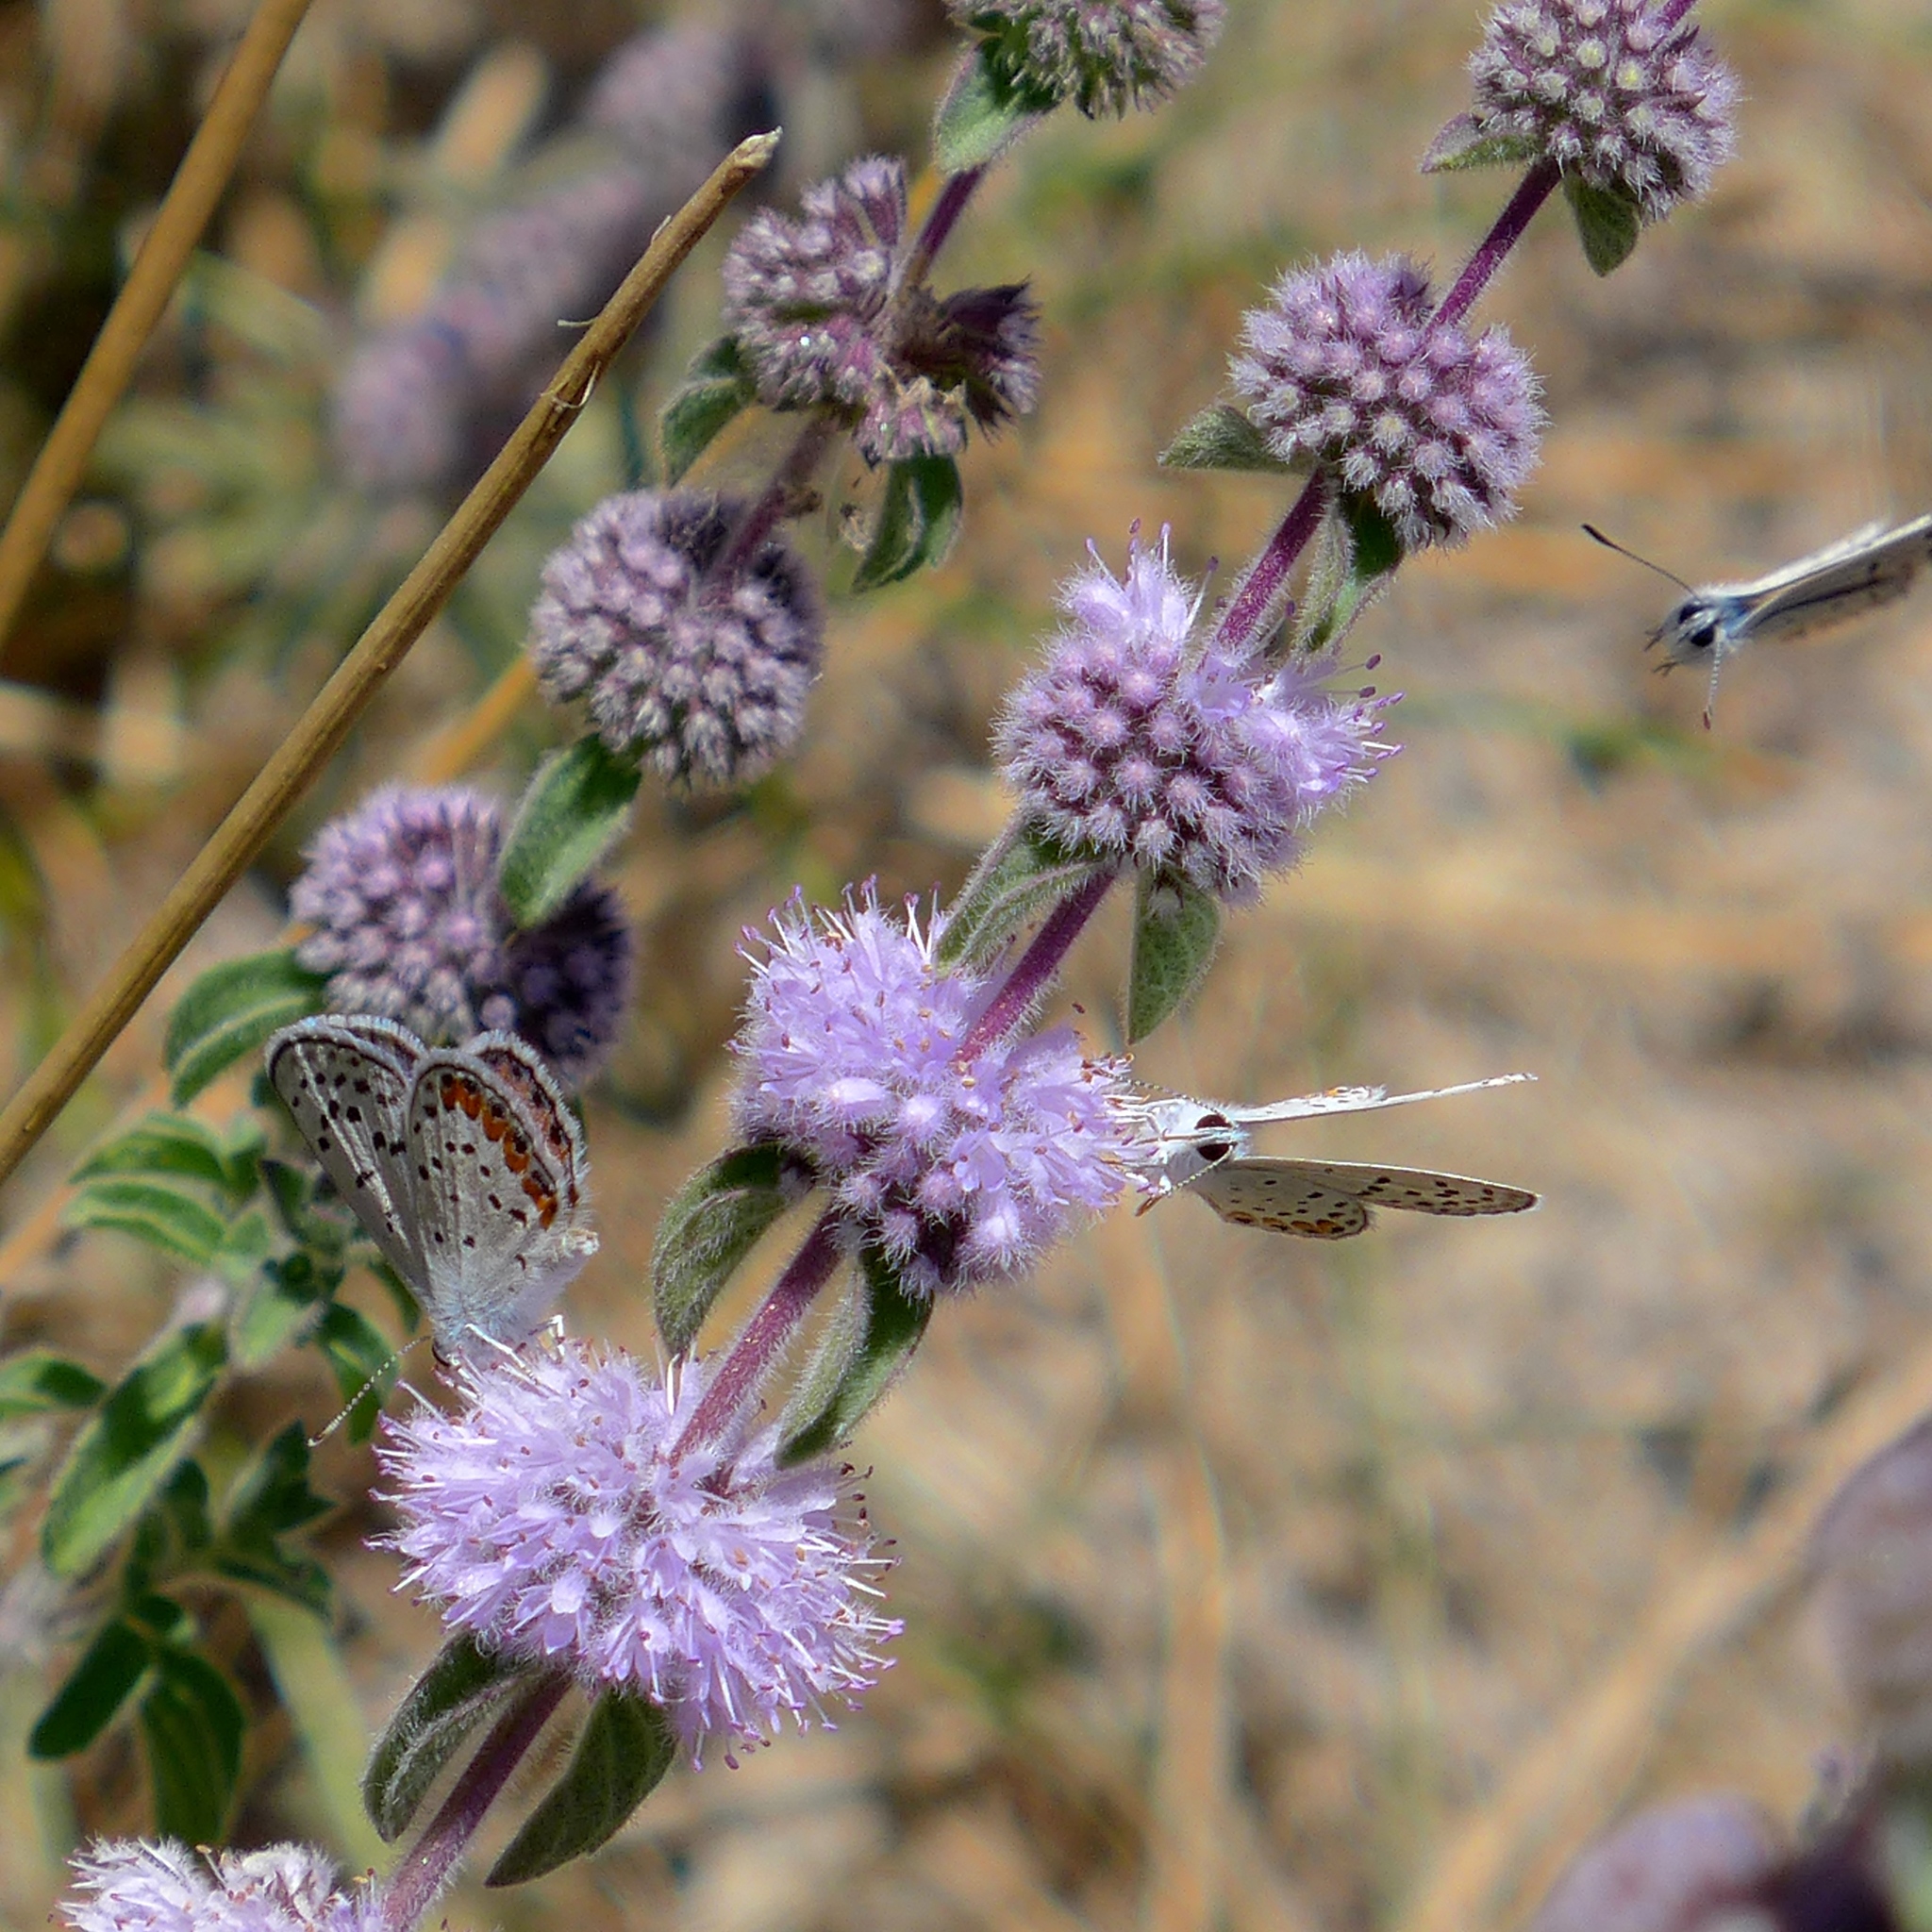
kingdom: Plantae
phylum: Tracheophyta
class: Magnoliopsida
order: Lamiales
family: Lamiaceae
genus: Mentha
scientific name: Mentha pulegium
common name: Pennyroyal
